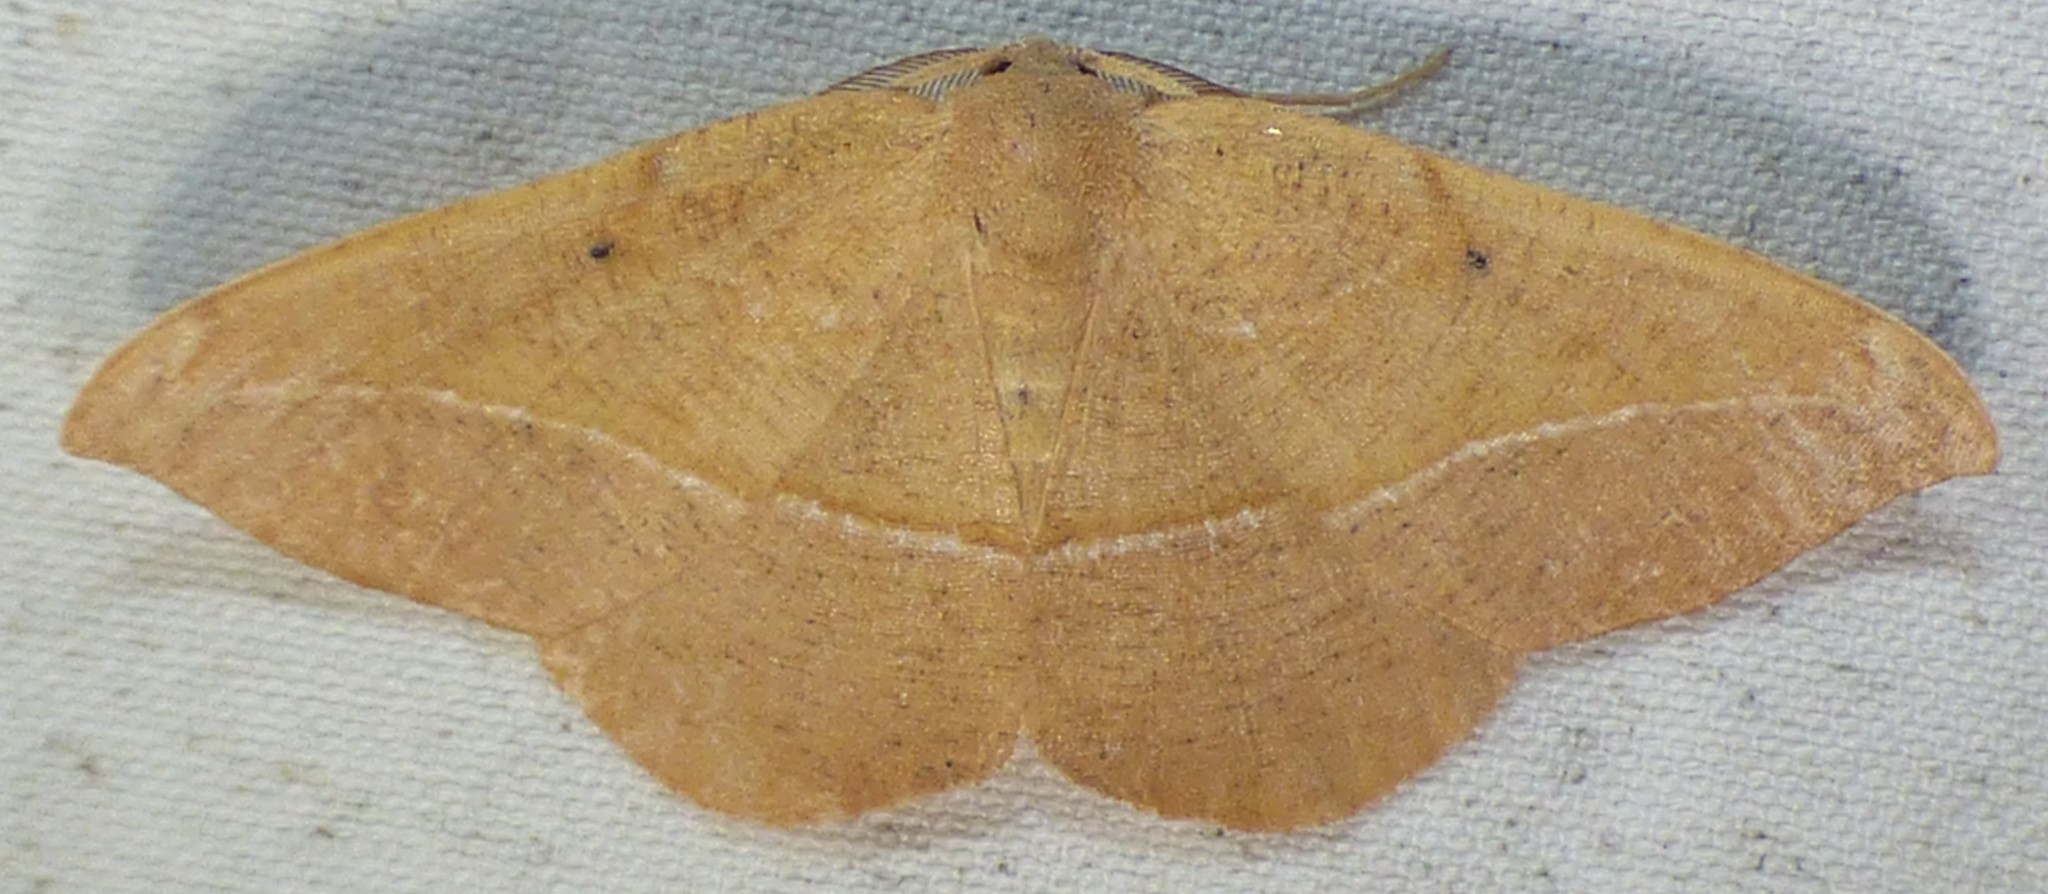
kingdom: Animalia
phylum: Arthropoda
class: Insecta
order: Lepidoptera
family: Geometridae
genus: Patalene
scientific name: Patalene olyzonaria
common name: Juniper geometer moth
